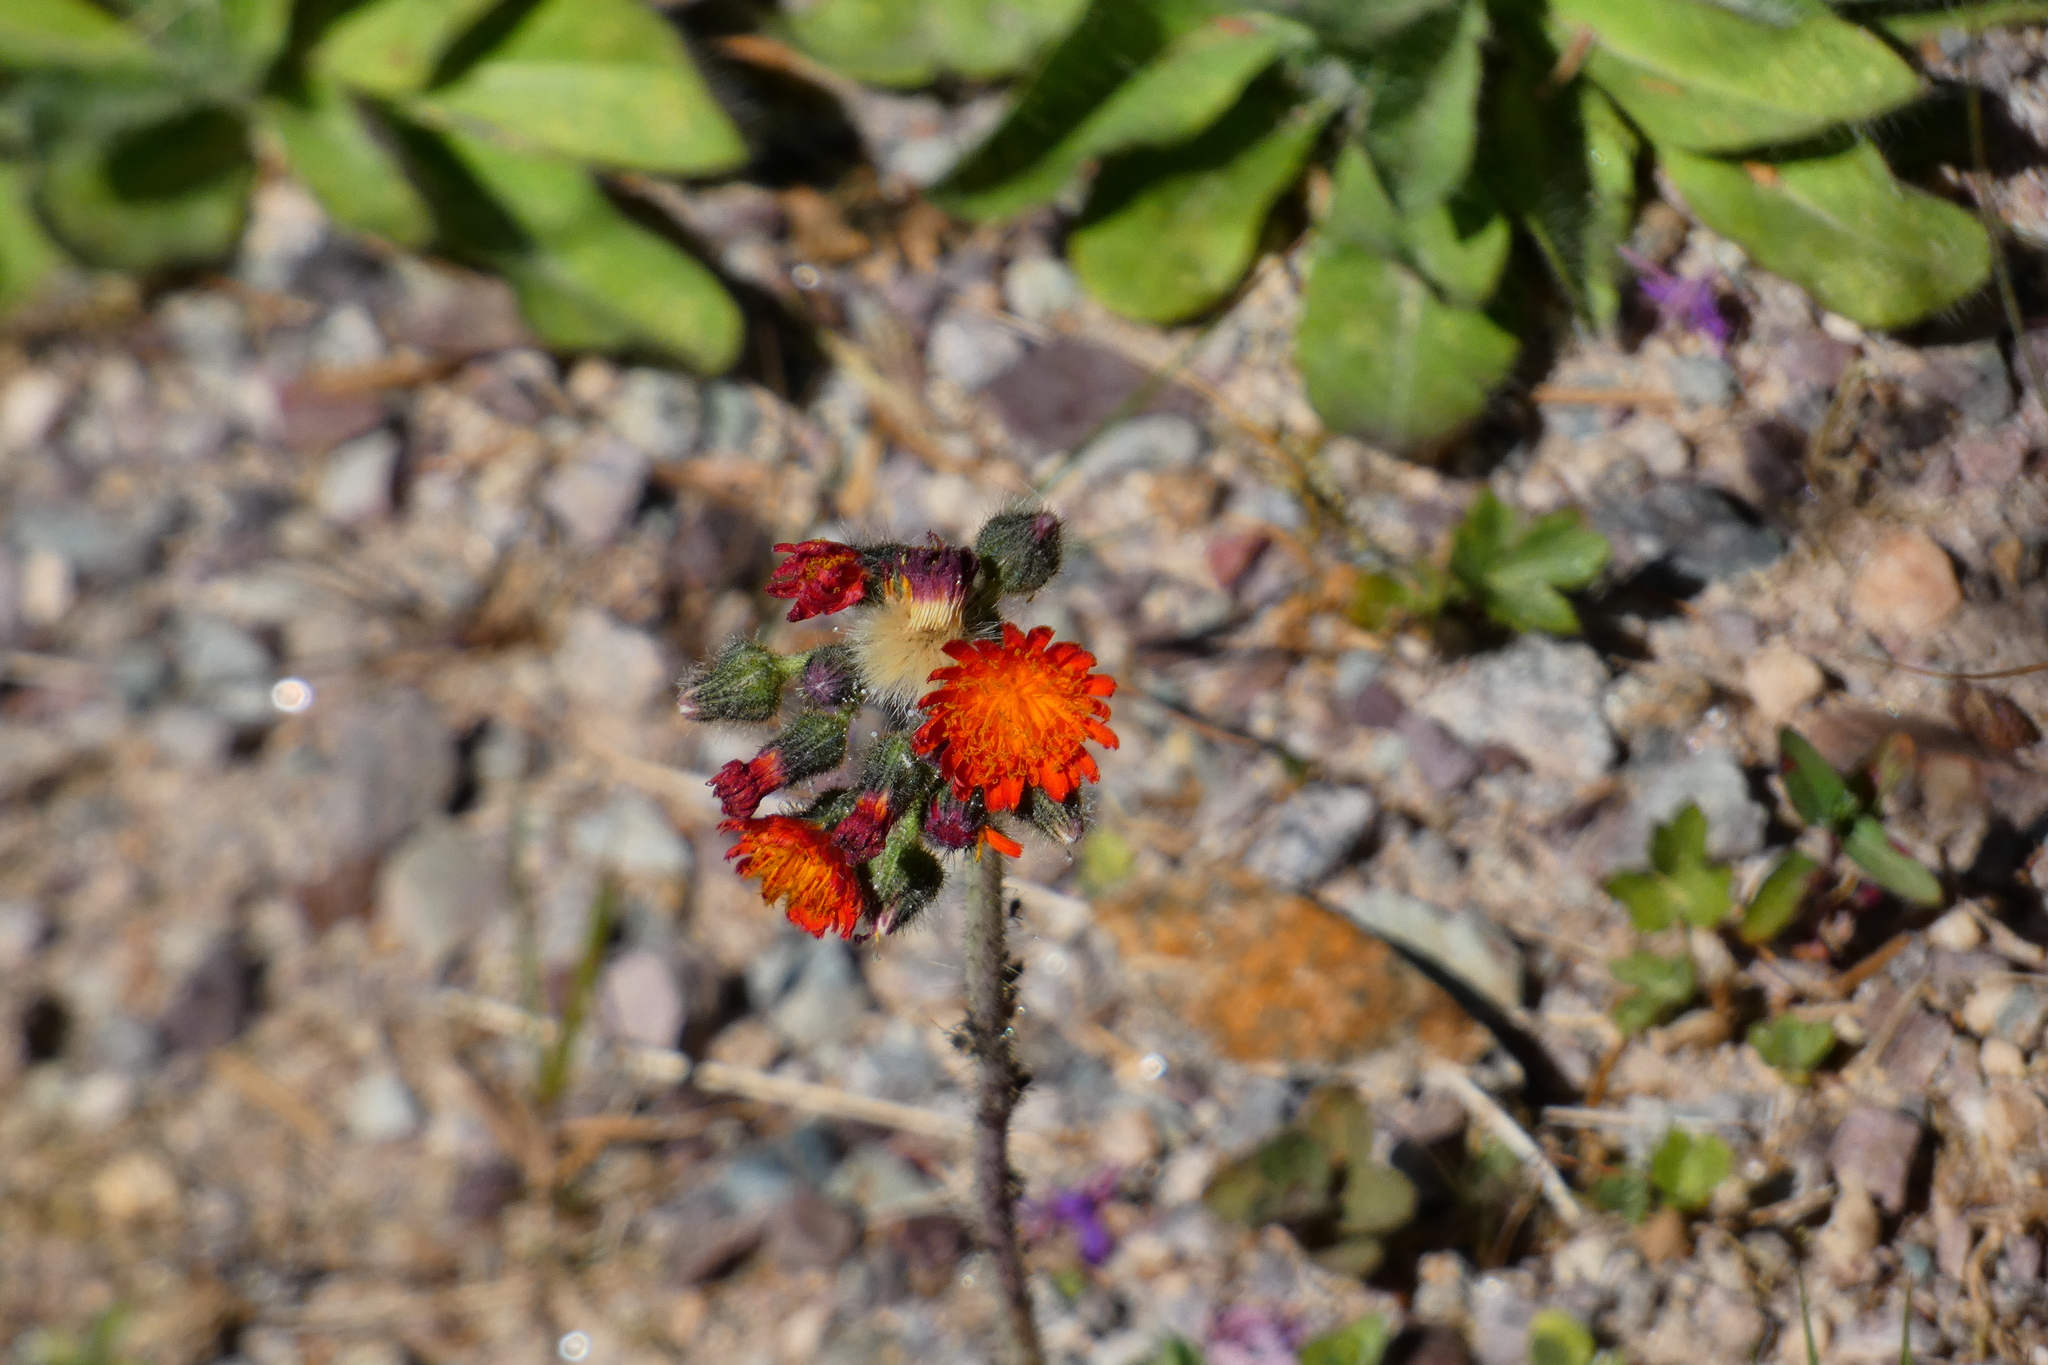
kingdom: Plantae
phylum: Tracheophyta
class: Magnoliopsida
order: Asterales
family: Asteraceae
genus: Pilosella
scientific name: Pilosella aurantiaca
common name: Fox-and-cubs
